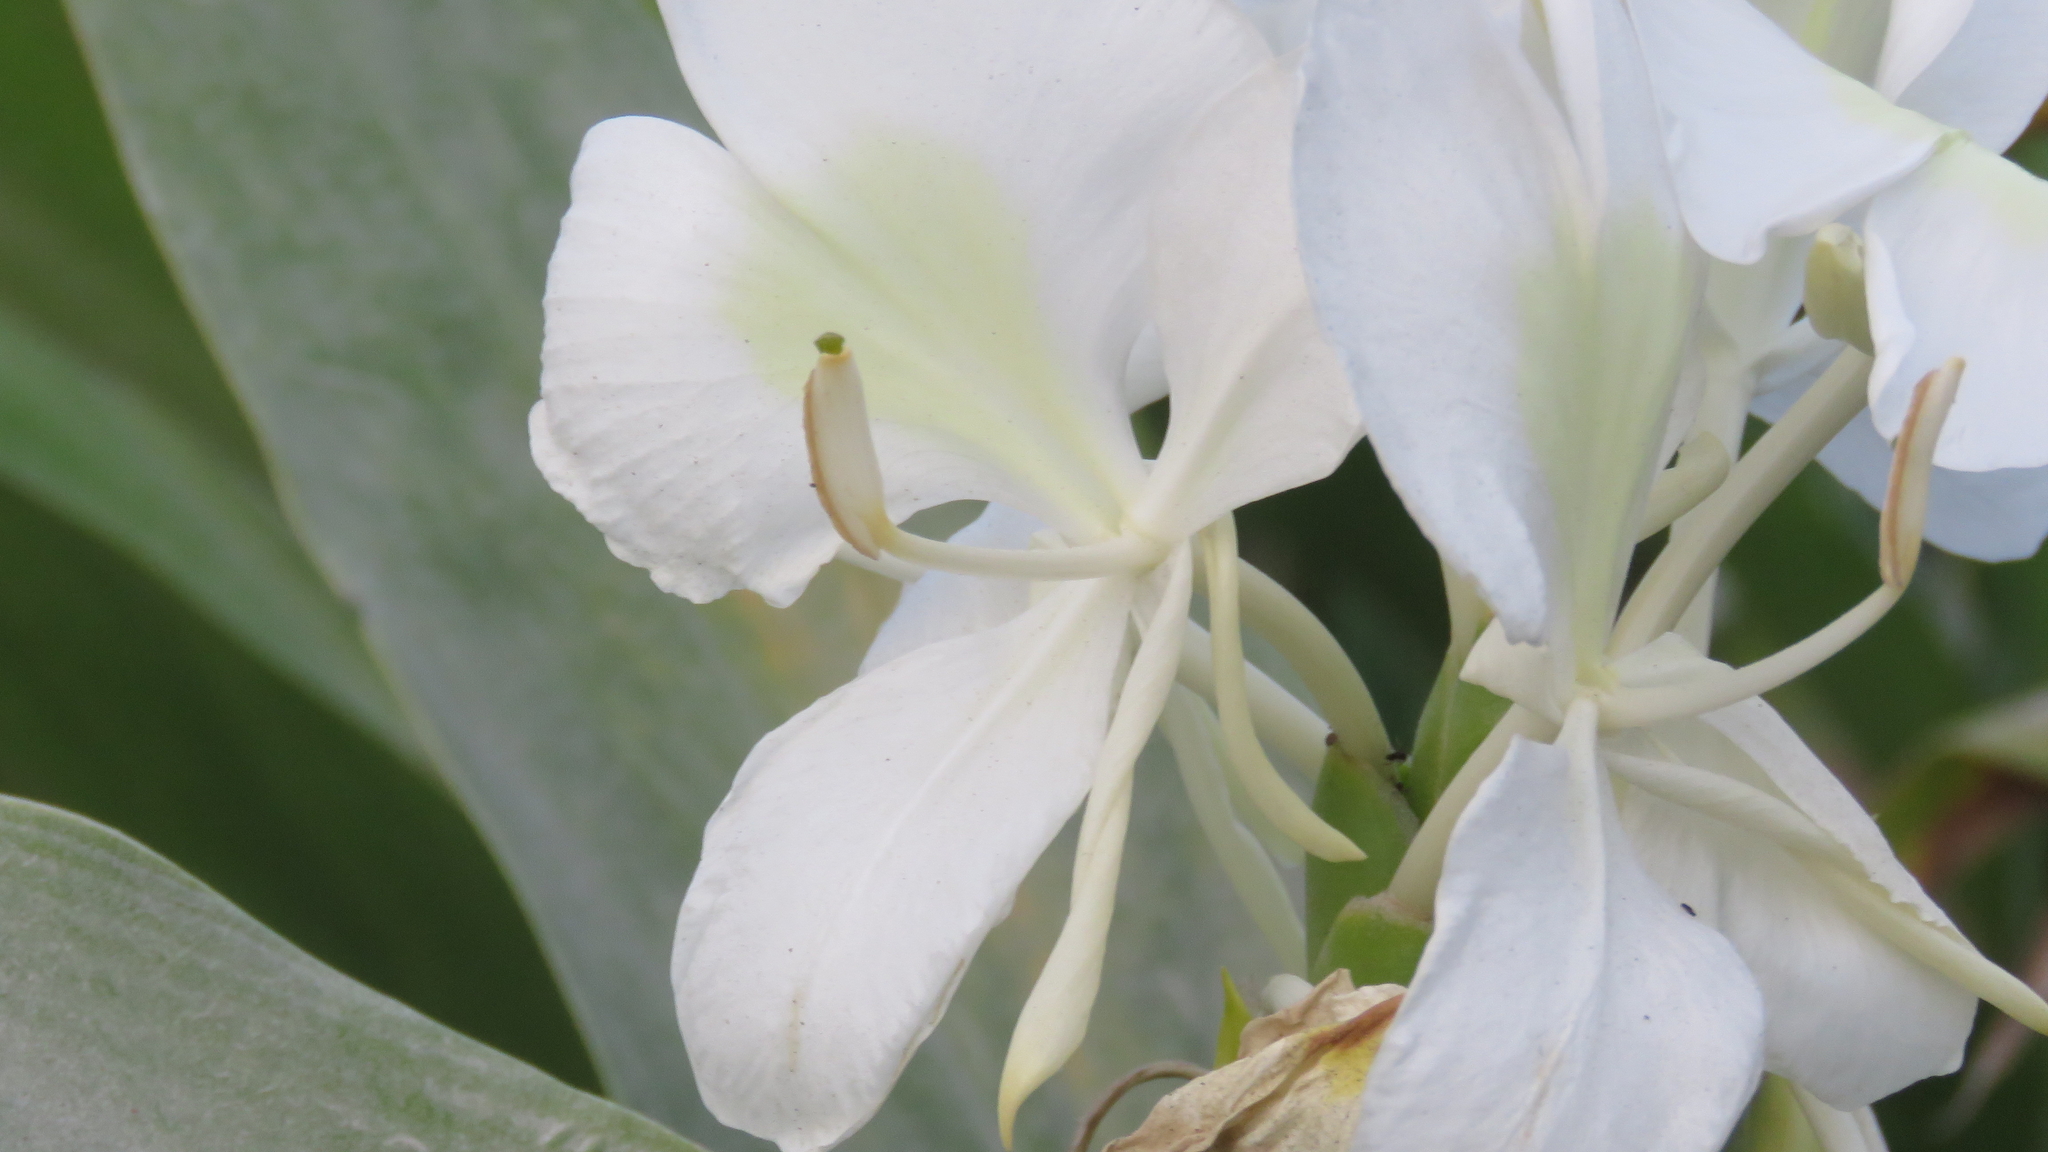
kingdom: Plantae
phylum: Tracheophyta
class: Liliopsida
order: Zingiberales
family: Zingiberaceae
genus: Hedychium
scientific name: Hedychium coronarium
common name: White garland-lily
